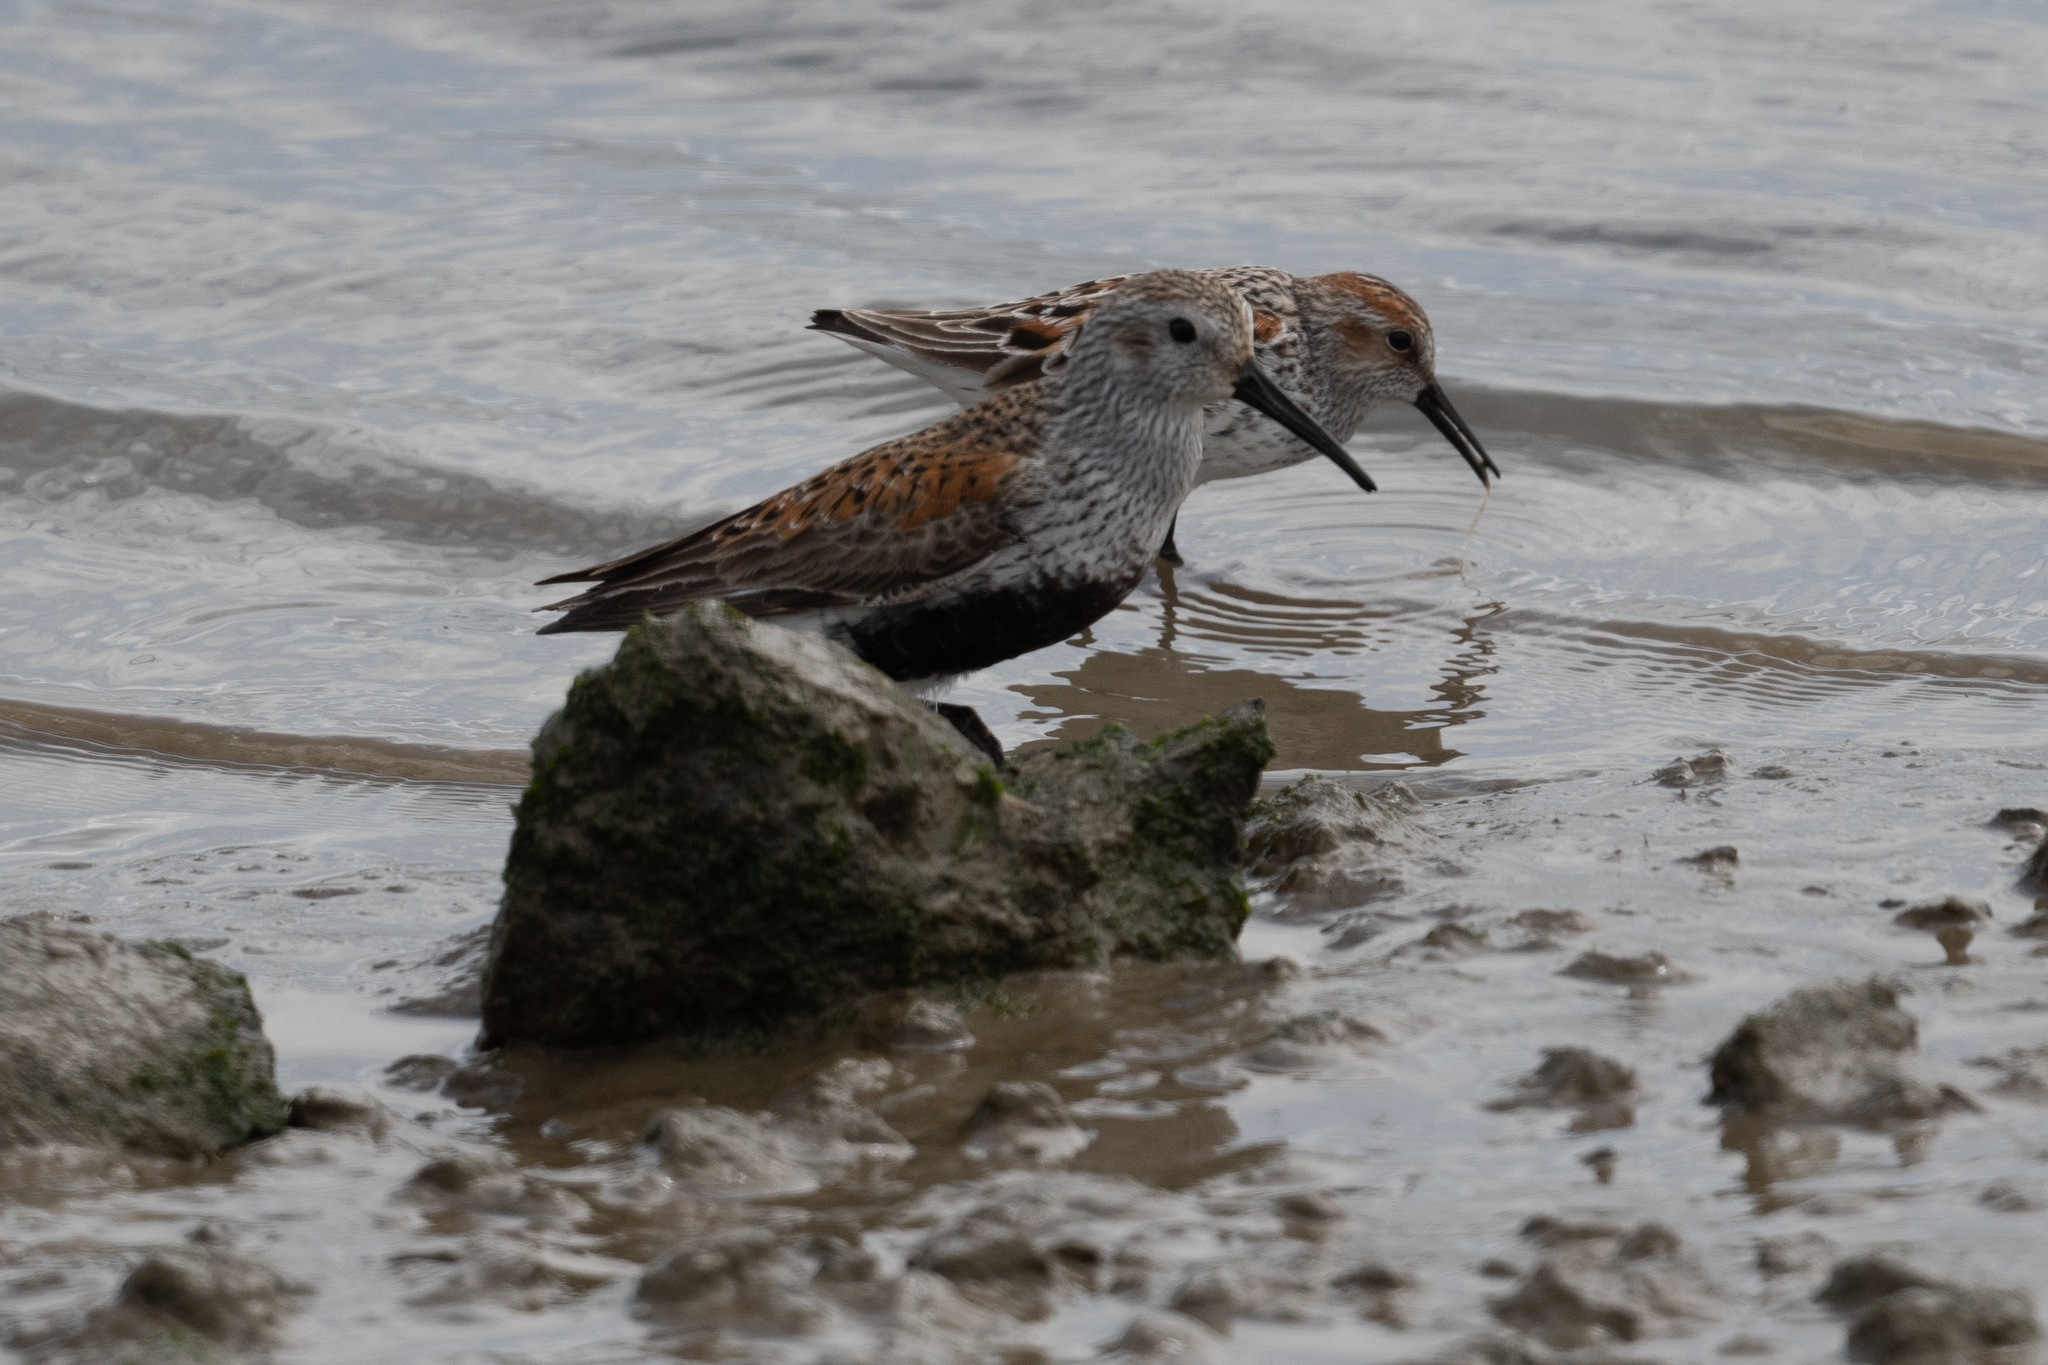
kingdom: Animalia
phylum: Chordata
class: Aves
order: Charadriiformes
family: Scolopacidae
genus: Calidris
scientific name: Calidris alpina
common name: Dunlin
